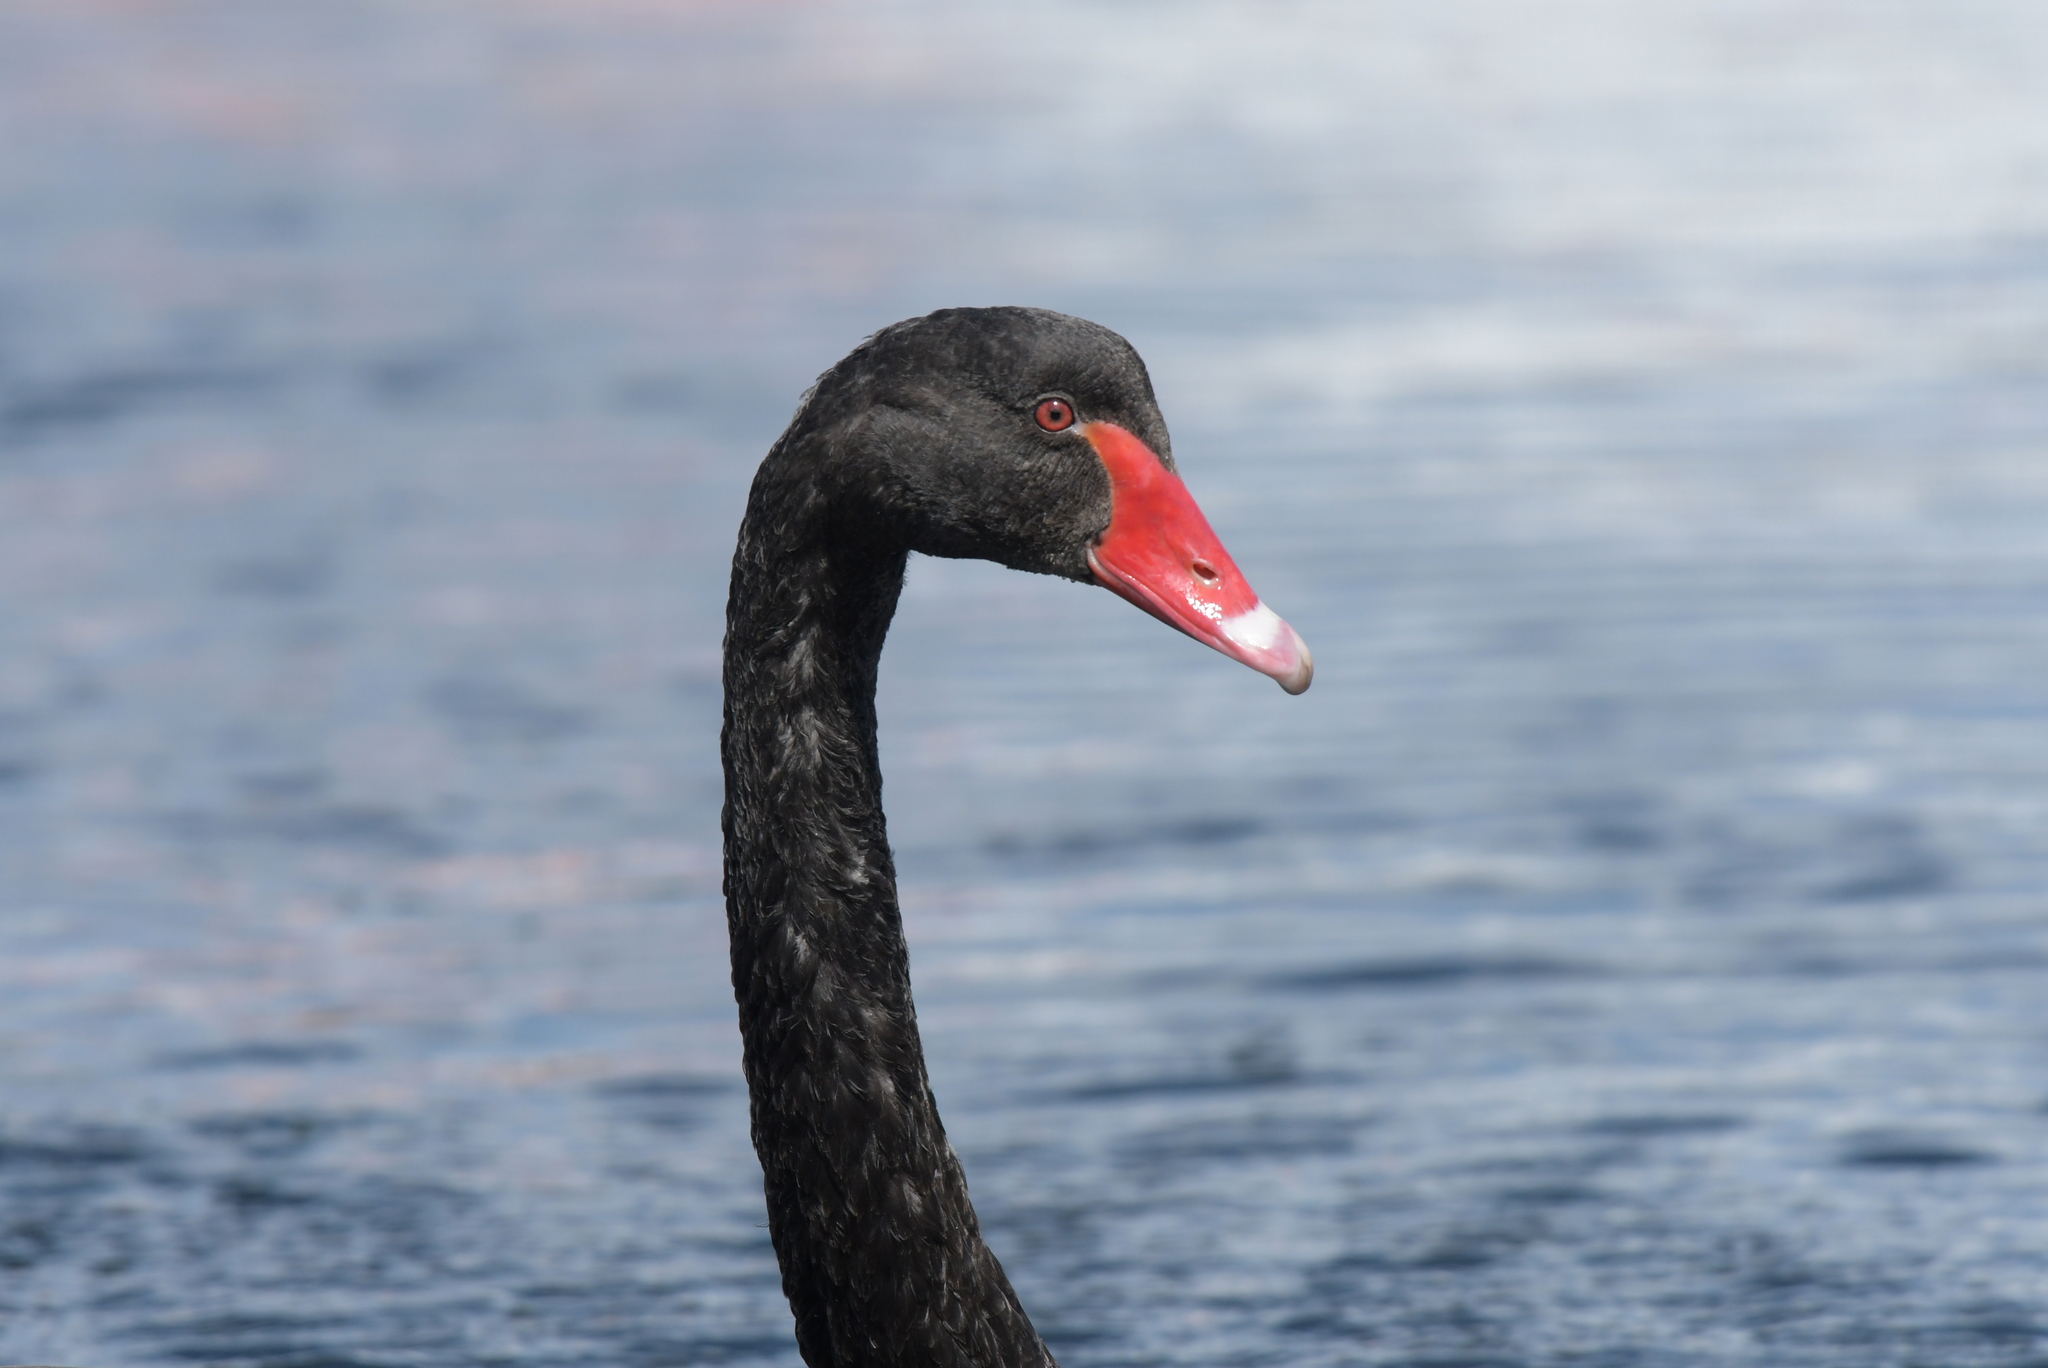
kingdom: Animalia
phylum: Chordata
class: Aves
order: Anseriformes
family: Anatidae
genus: Cygnus
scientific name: Cygnus atratus
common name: Black swan
